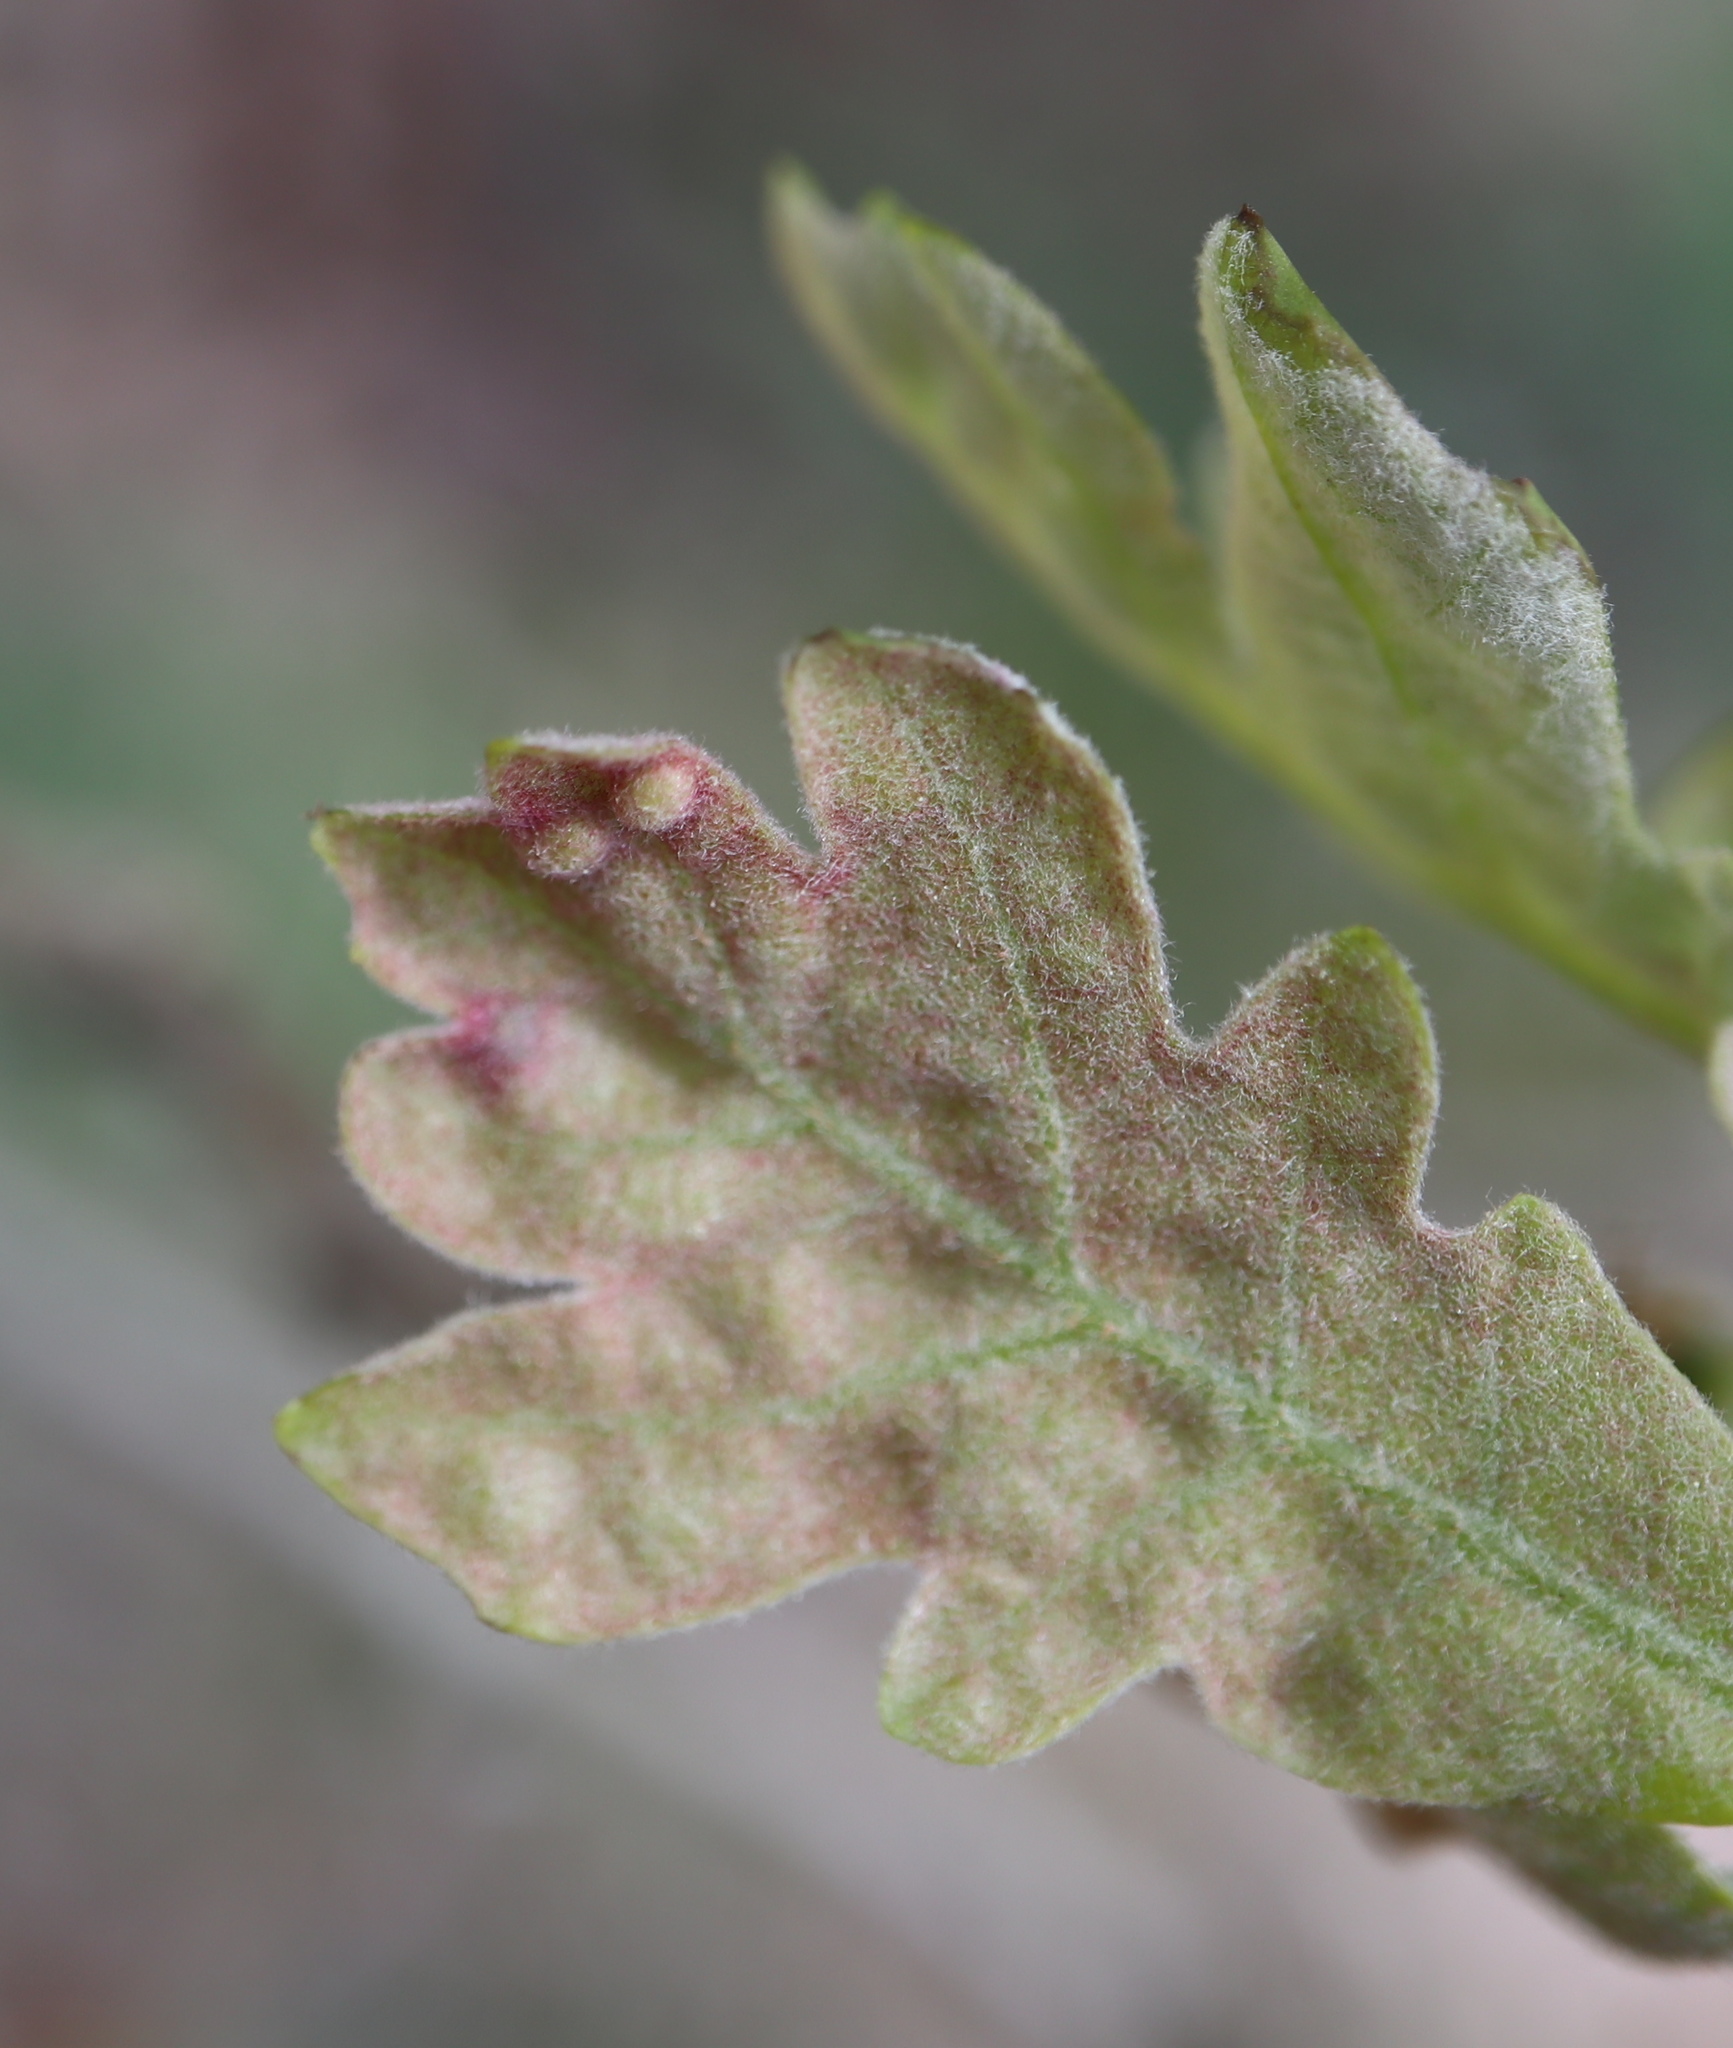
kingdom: Animalia
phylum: Arthropoda
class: Insecta
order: Hymenoptera
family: Cynipidae
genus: Neuroterus
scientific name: Neuroterus quercusverrucarum
